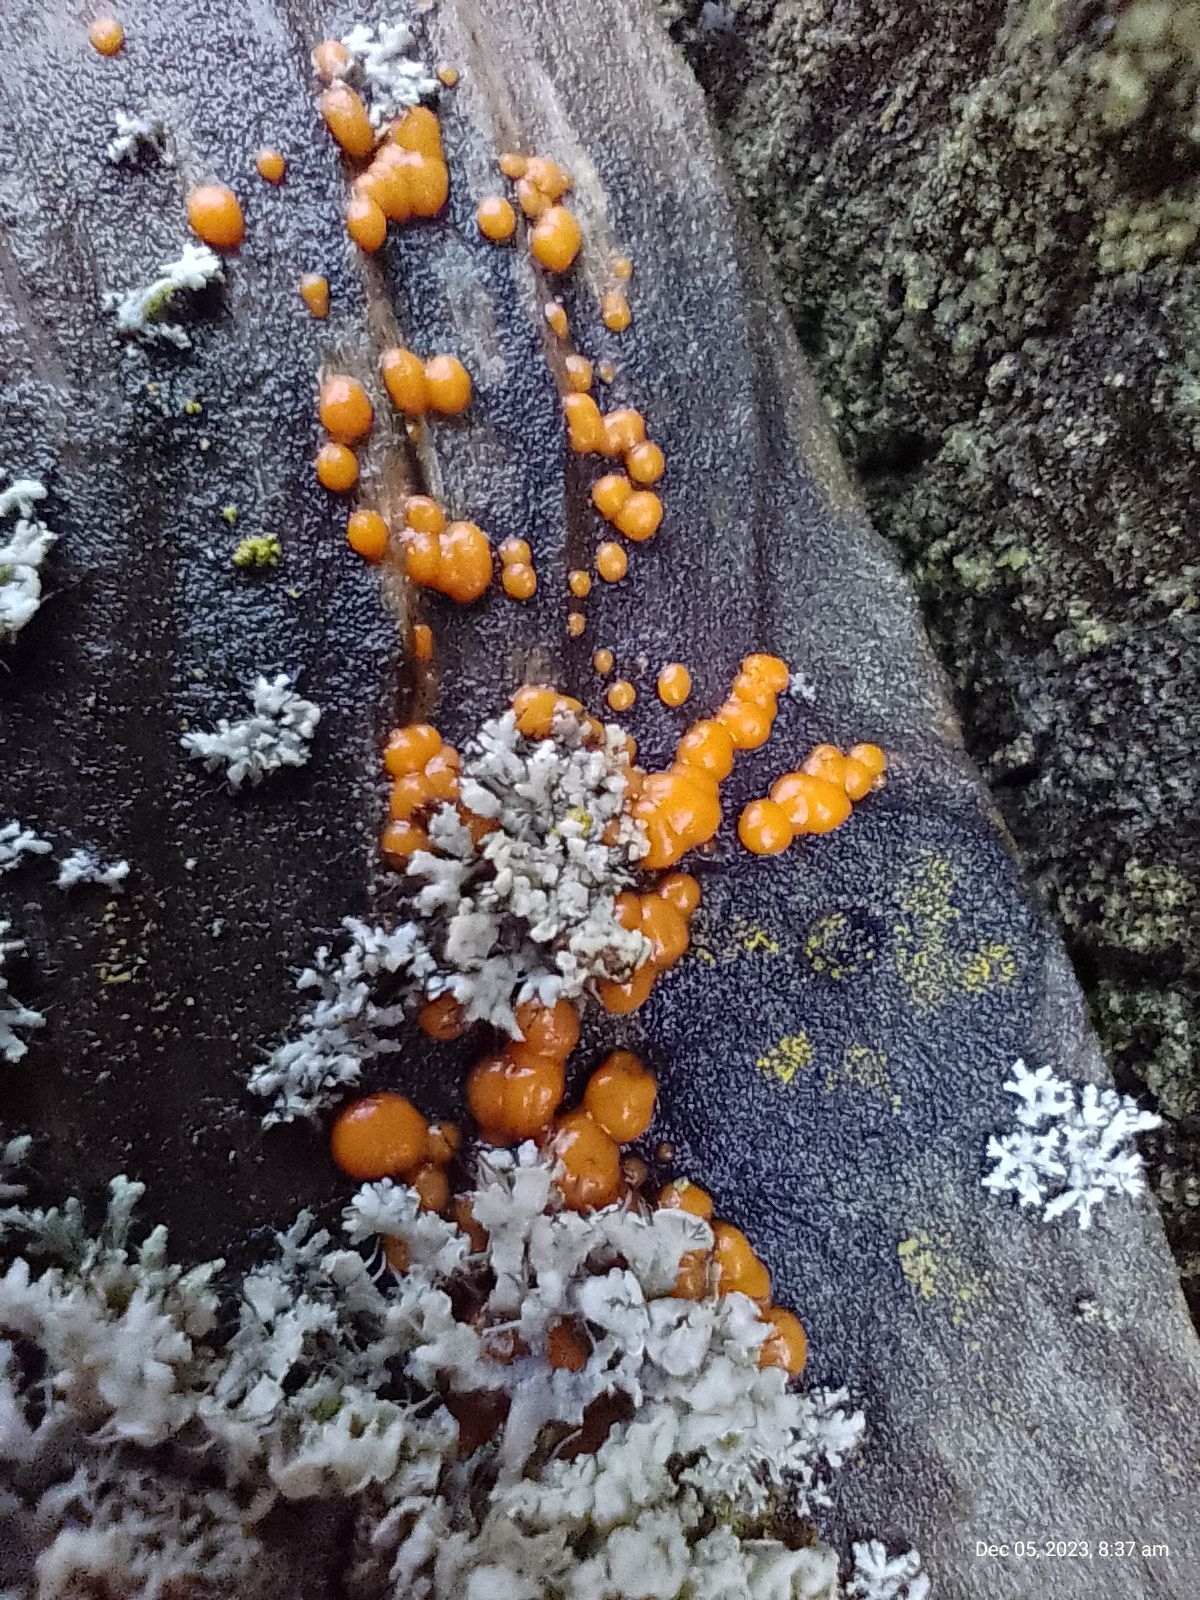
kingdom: Fungi
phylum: Basidiomycota
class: Dacrymycetes
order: Dacrymycetales
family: Dacrymycetaceae
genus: Dacrymyces
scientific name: Dacrymyces stillatus
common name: Common jelly spot
